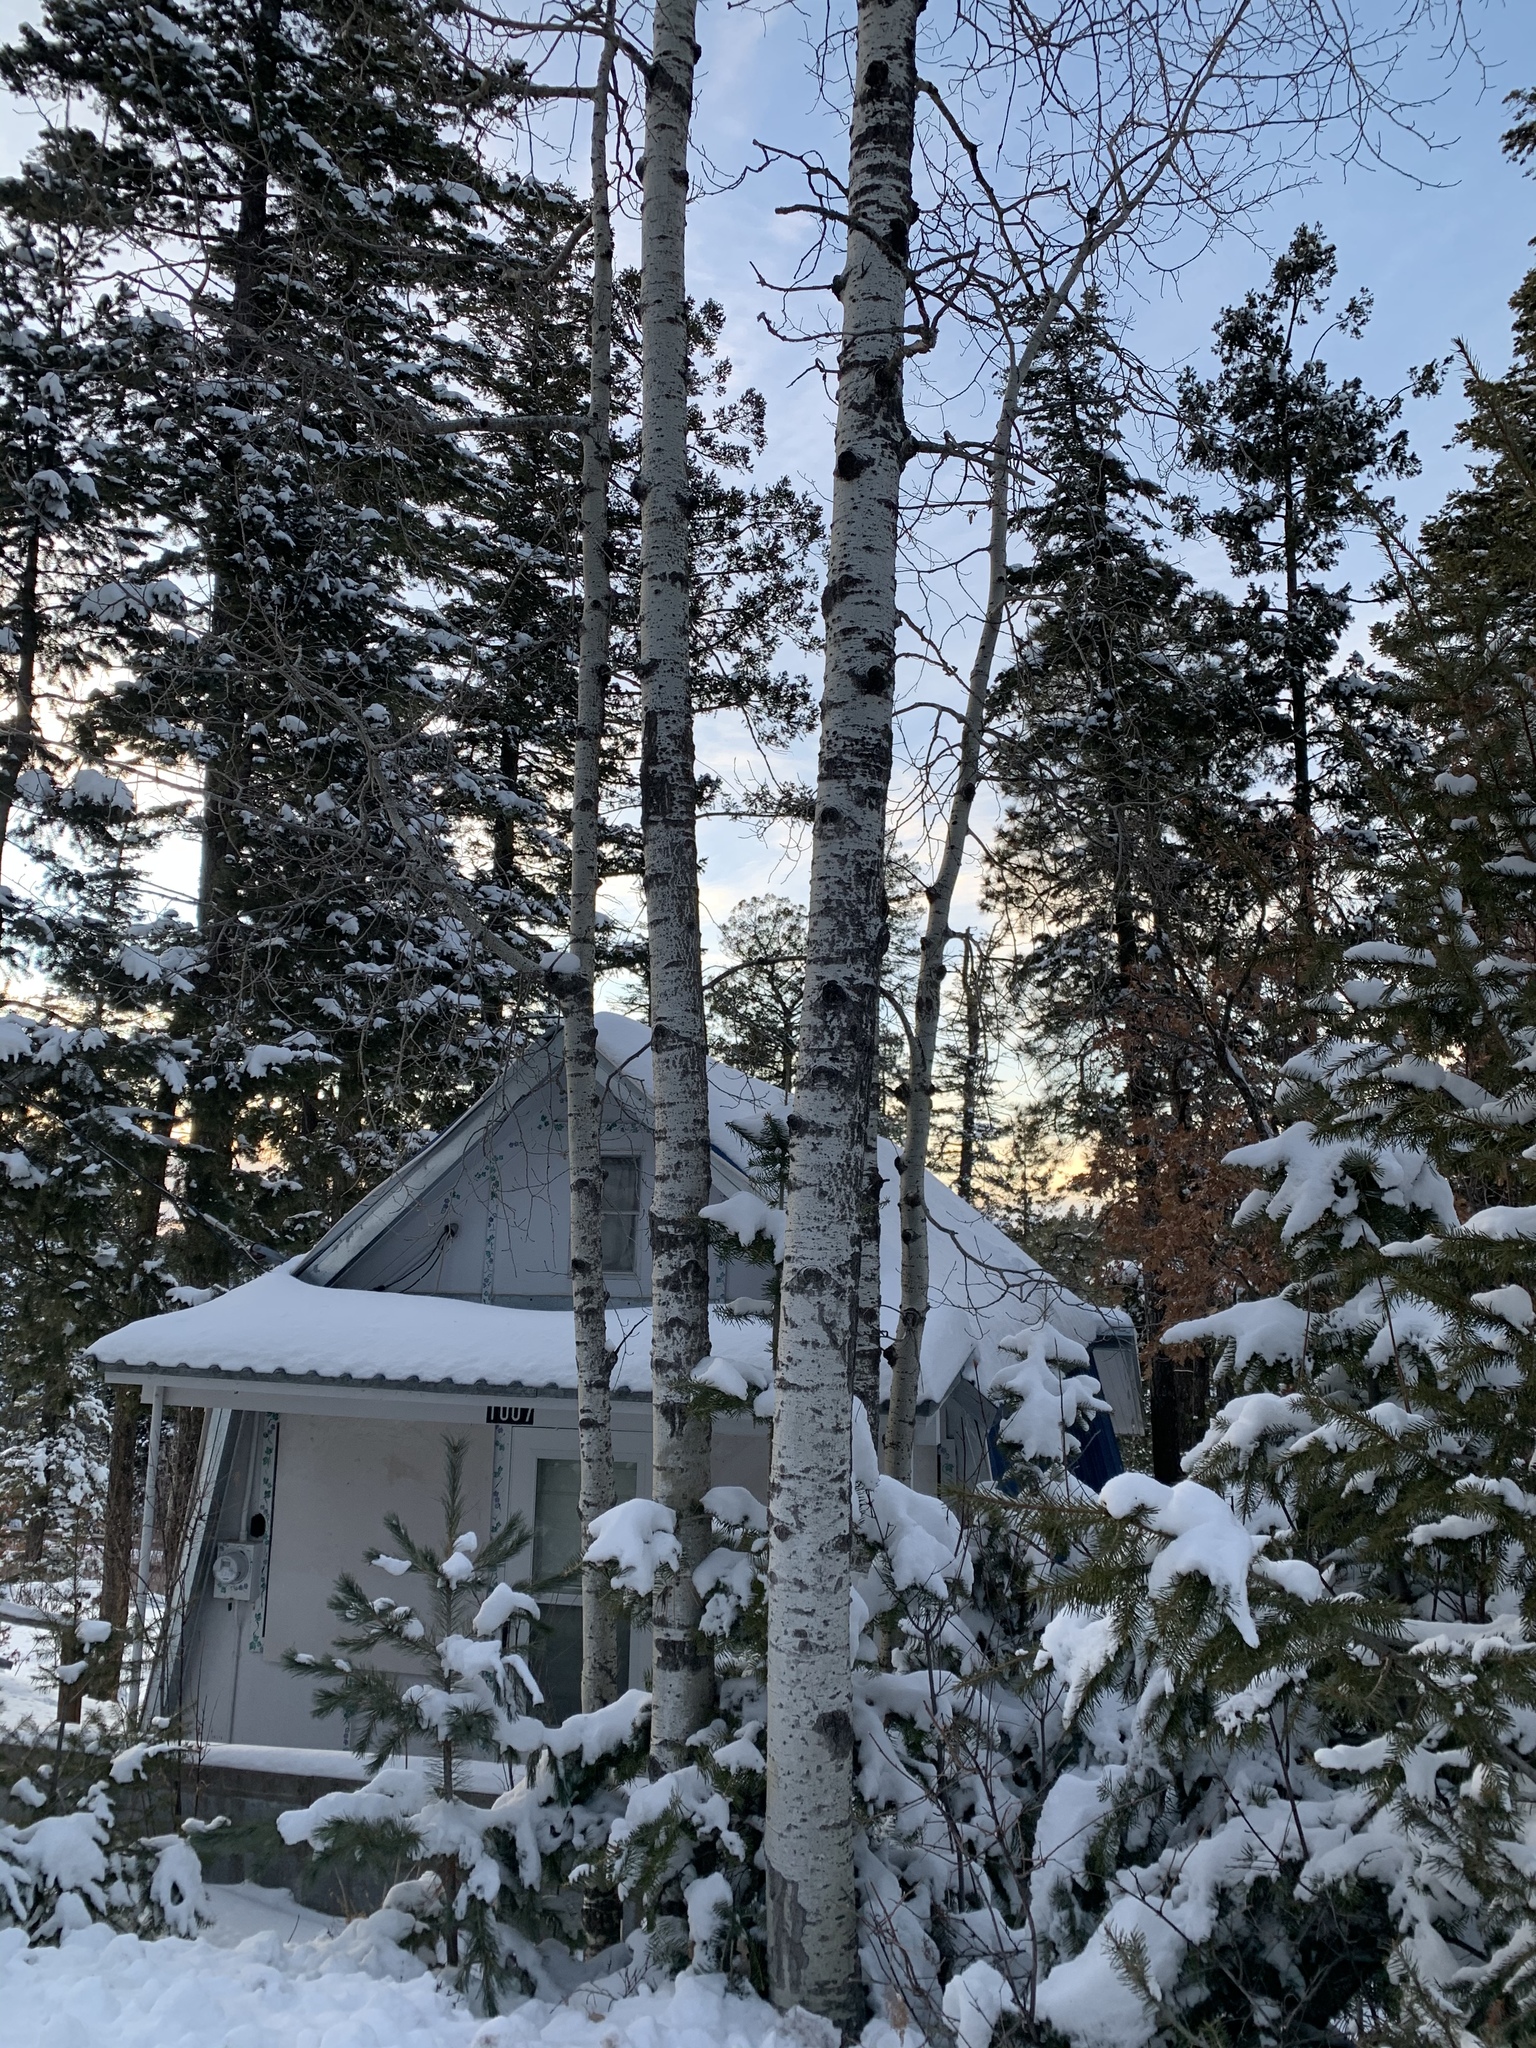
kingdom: Plantae
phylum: Tracheophyta
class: Magnoliopsida
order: Malpighiales
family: Salicaceae
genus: Populus
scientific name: Populus tremuloides
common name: Quaking aspen
